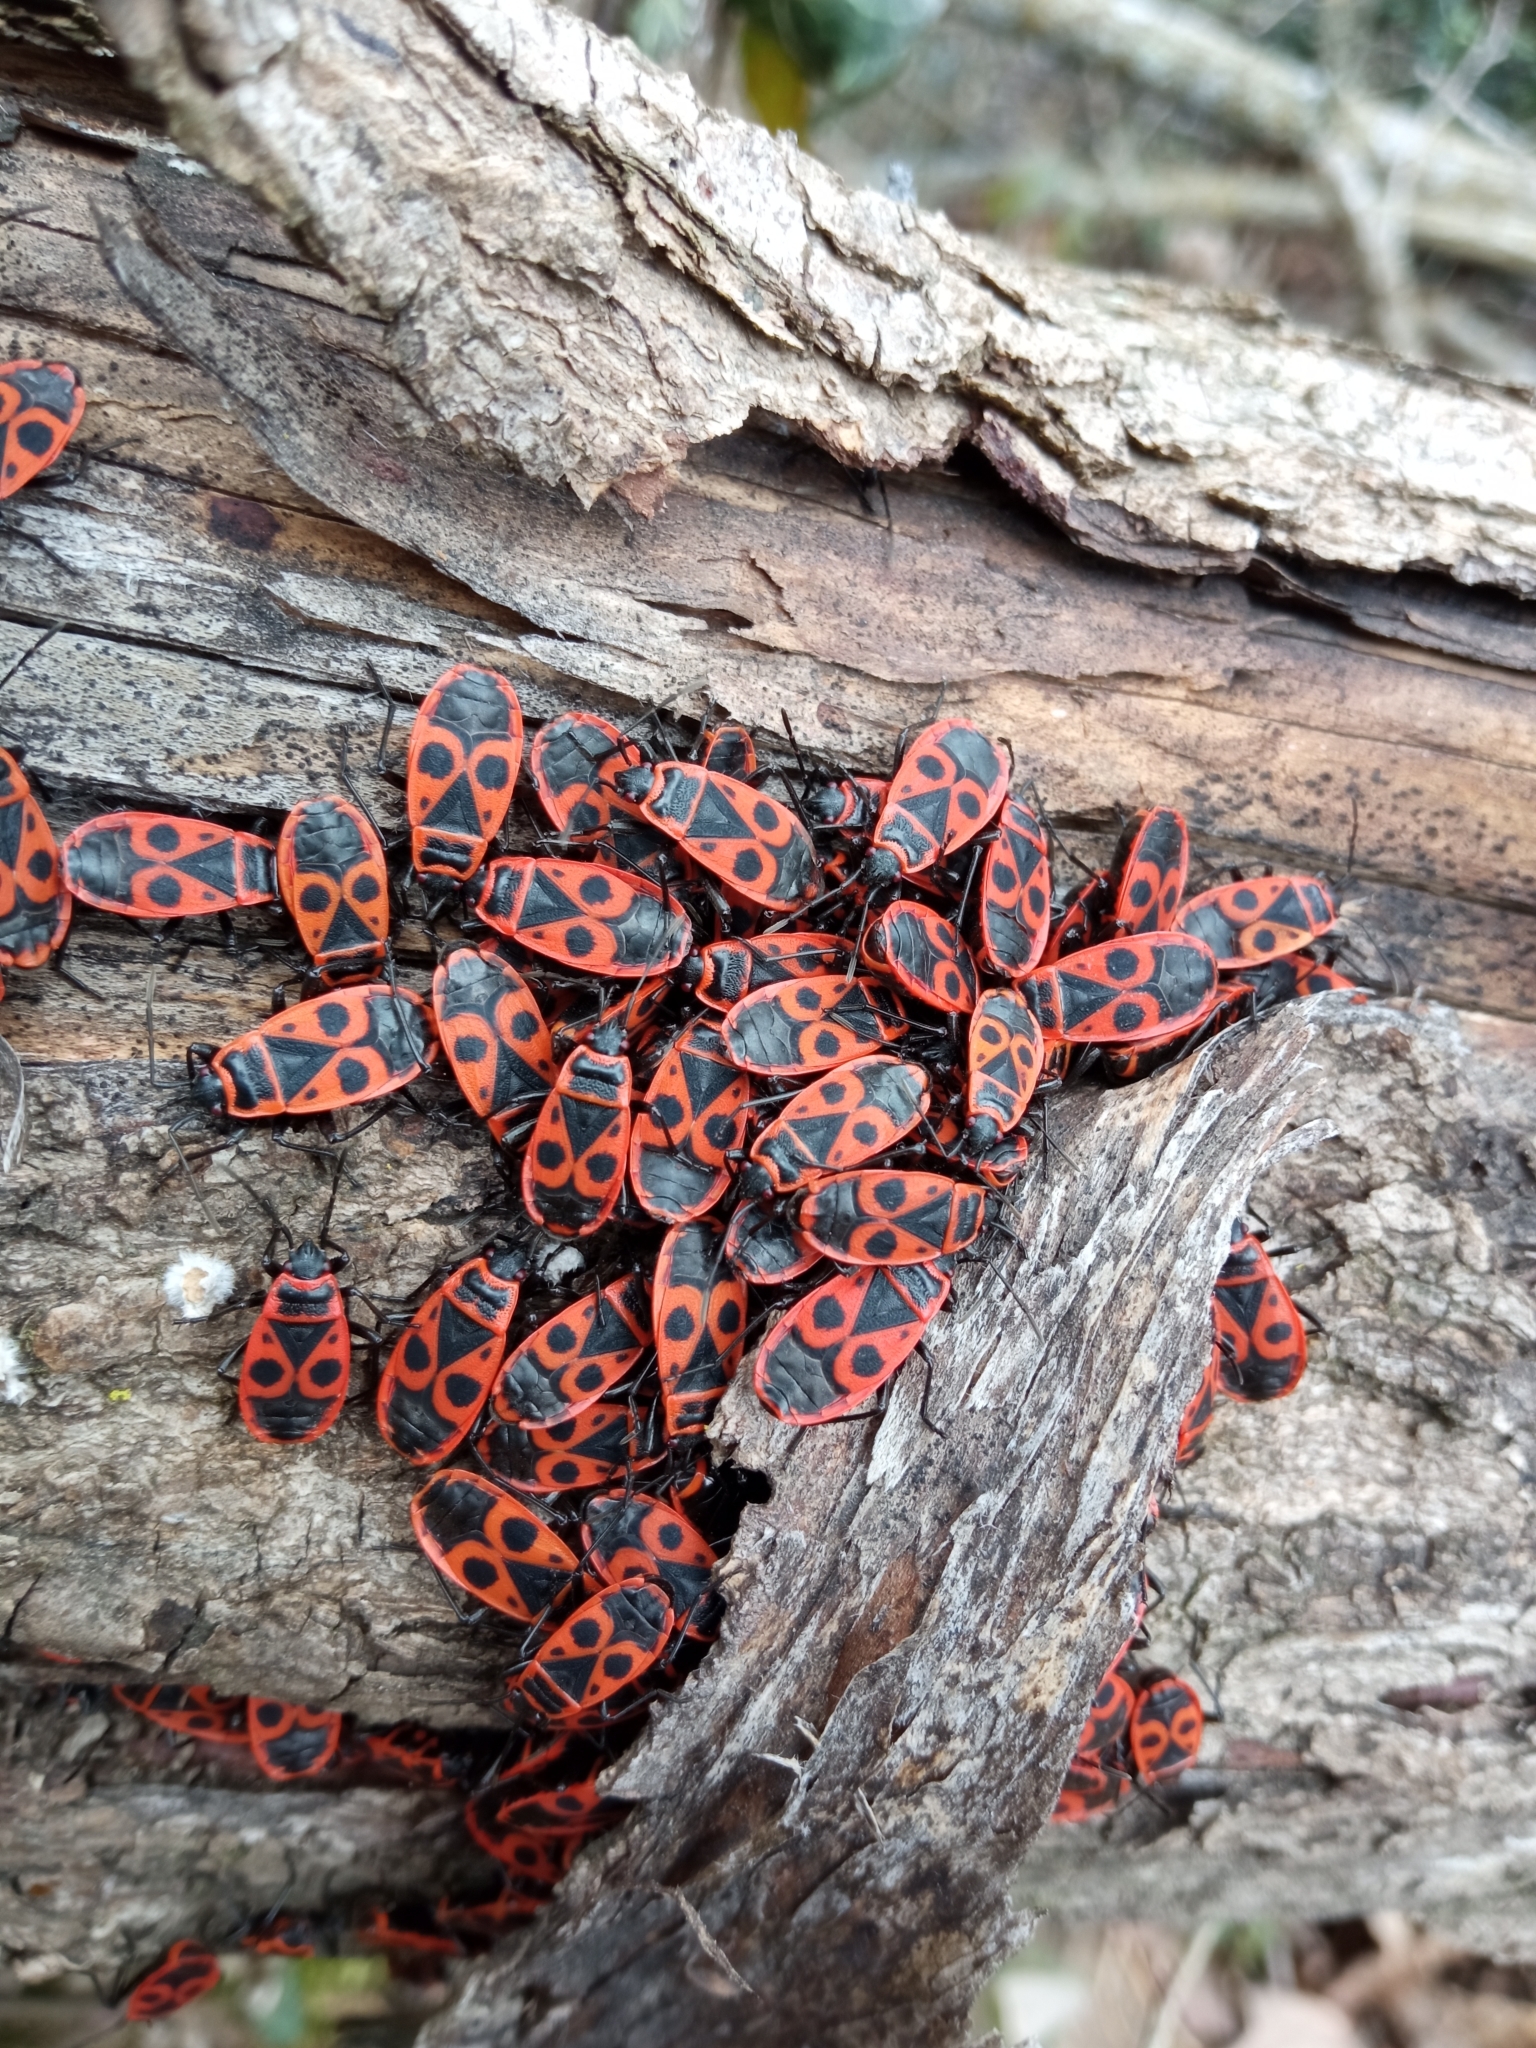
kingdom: Animalia
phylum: Arthropoda
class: Insecta
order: Hemiptera
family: Pyrrhocoridae
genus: Pyrrhocoris
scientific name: Pyrrhocoris apterus
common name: Firebug
